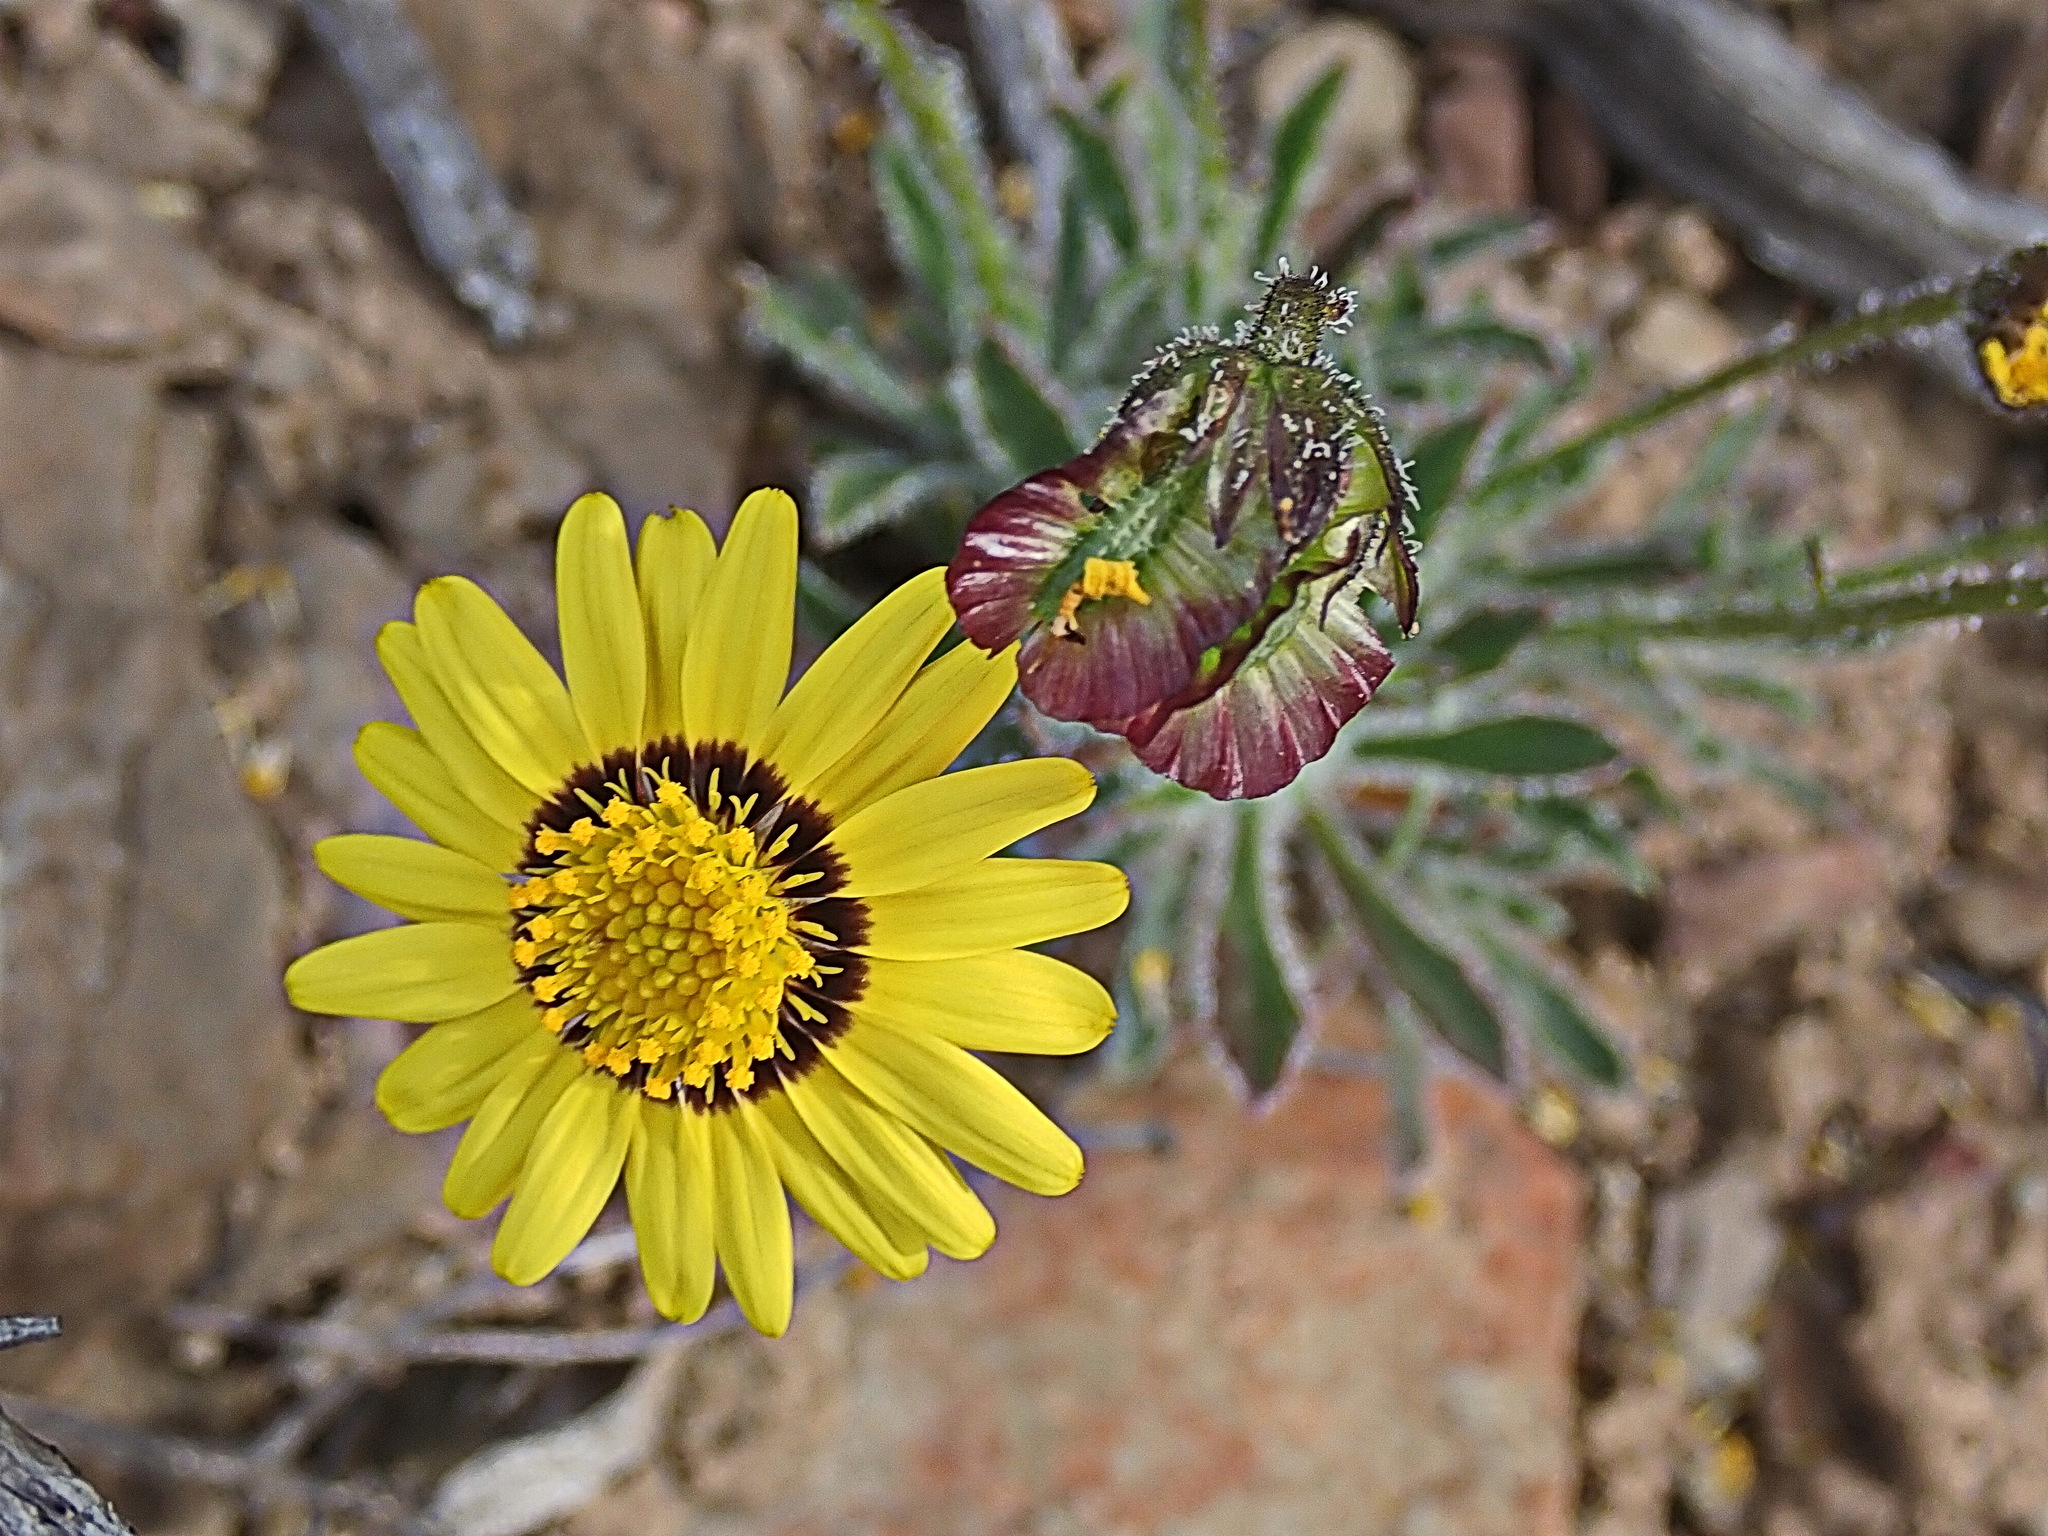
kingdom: Plantae
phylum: Tracheophyta
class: Magnoliopsida
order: Asterales
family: Asteraceae
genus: Osteospermum
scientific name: Osteospermum scariosum
